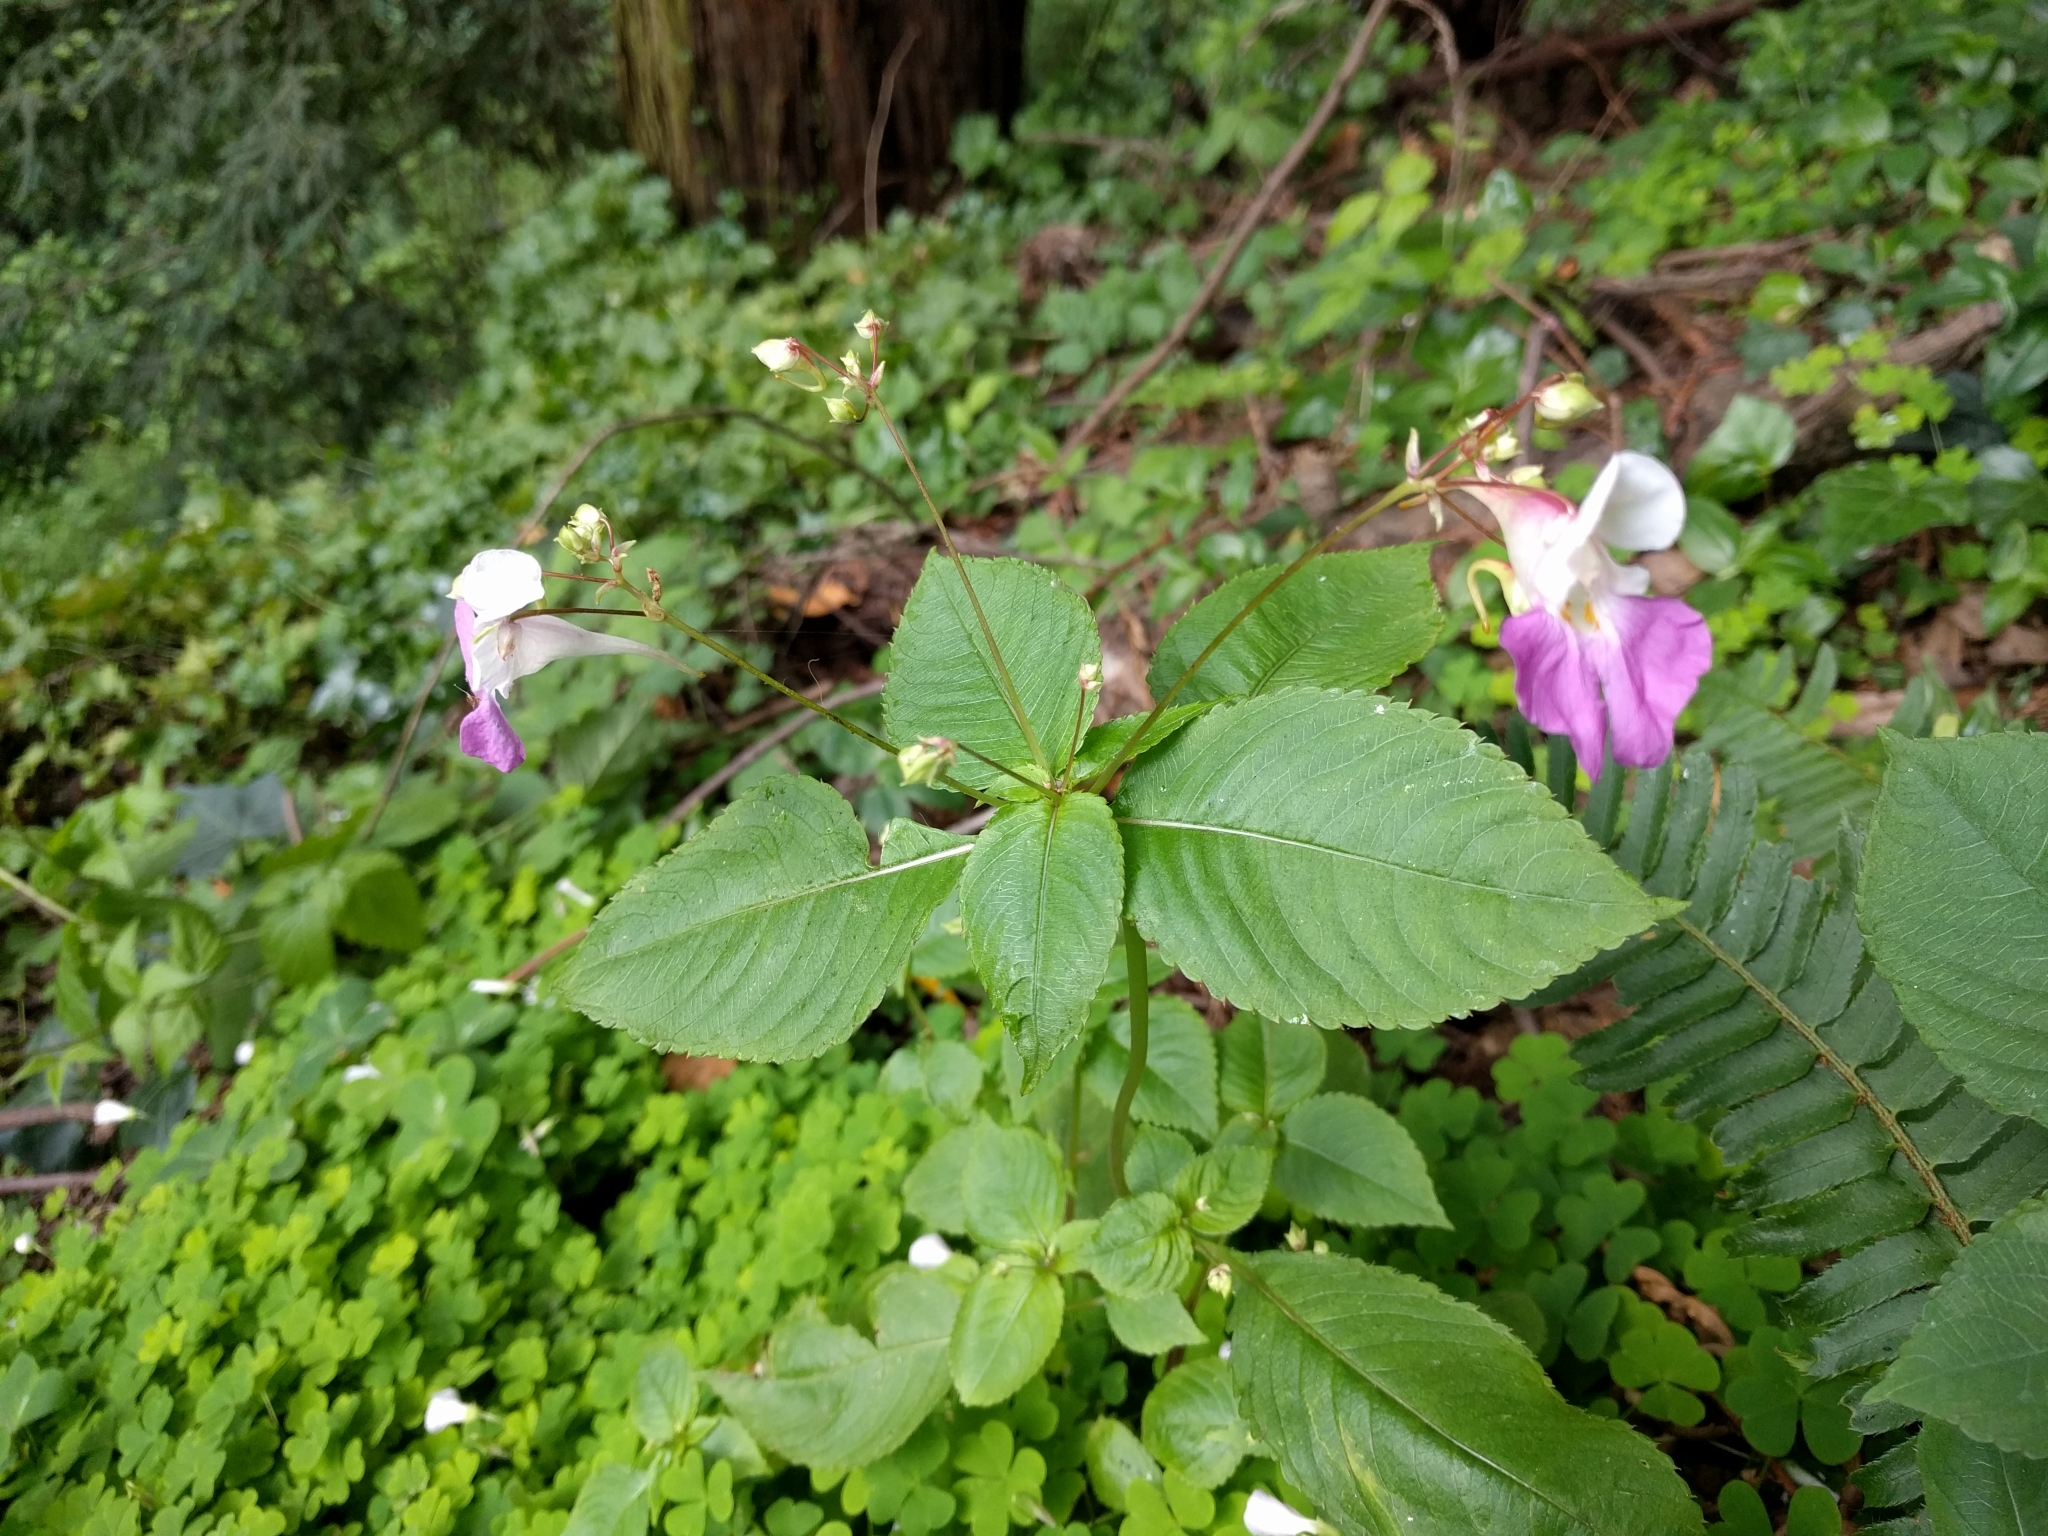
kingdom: Plantae
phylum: Tracheophyta
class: Magnoliopsida
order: Ericales
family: Balsaminaceae
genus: Impatiens
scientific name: Impatiens balfourii
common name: Balfour's touch-me-not
